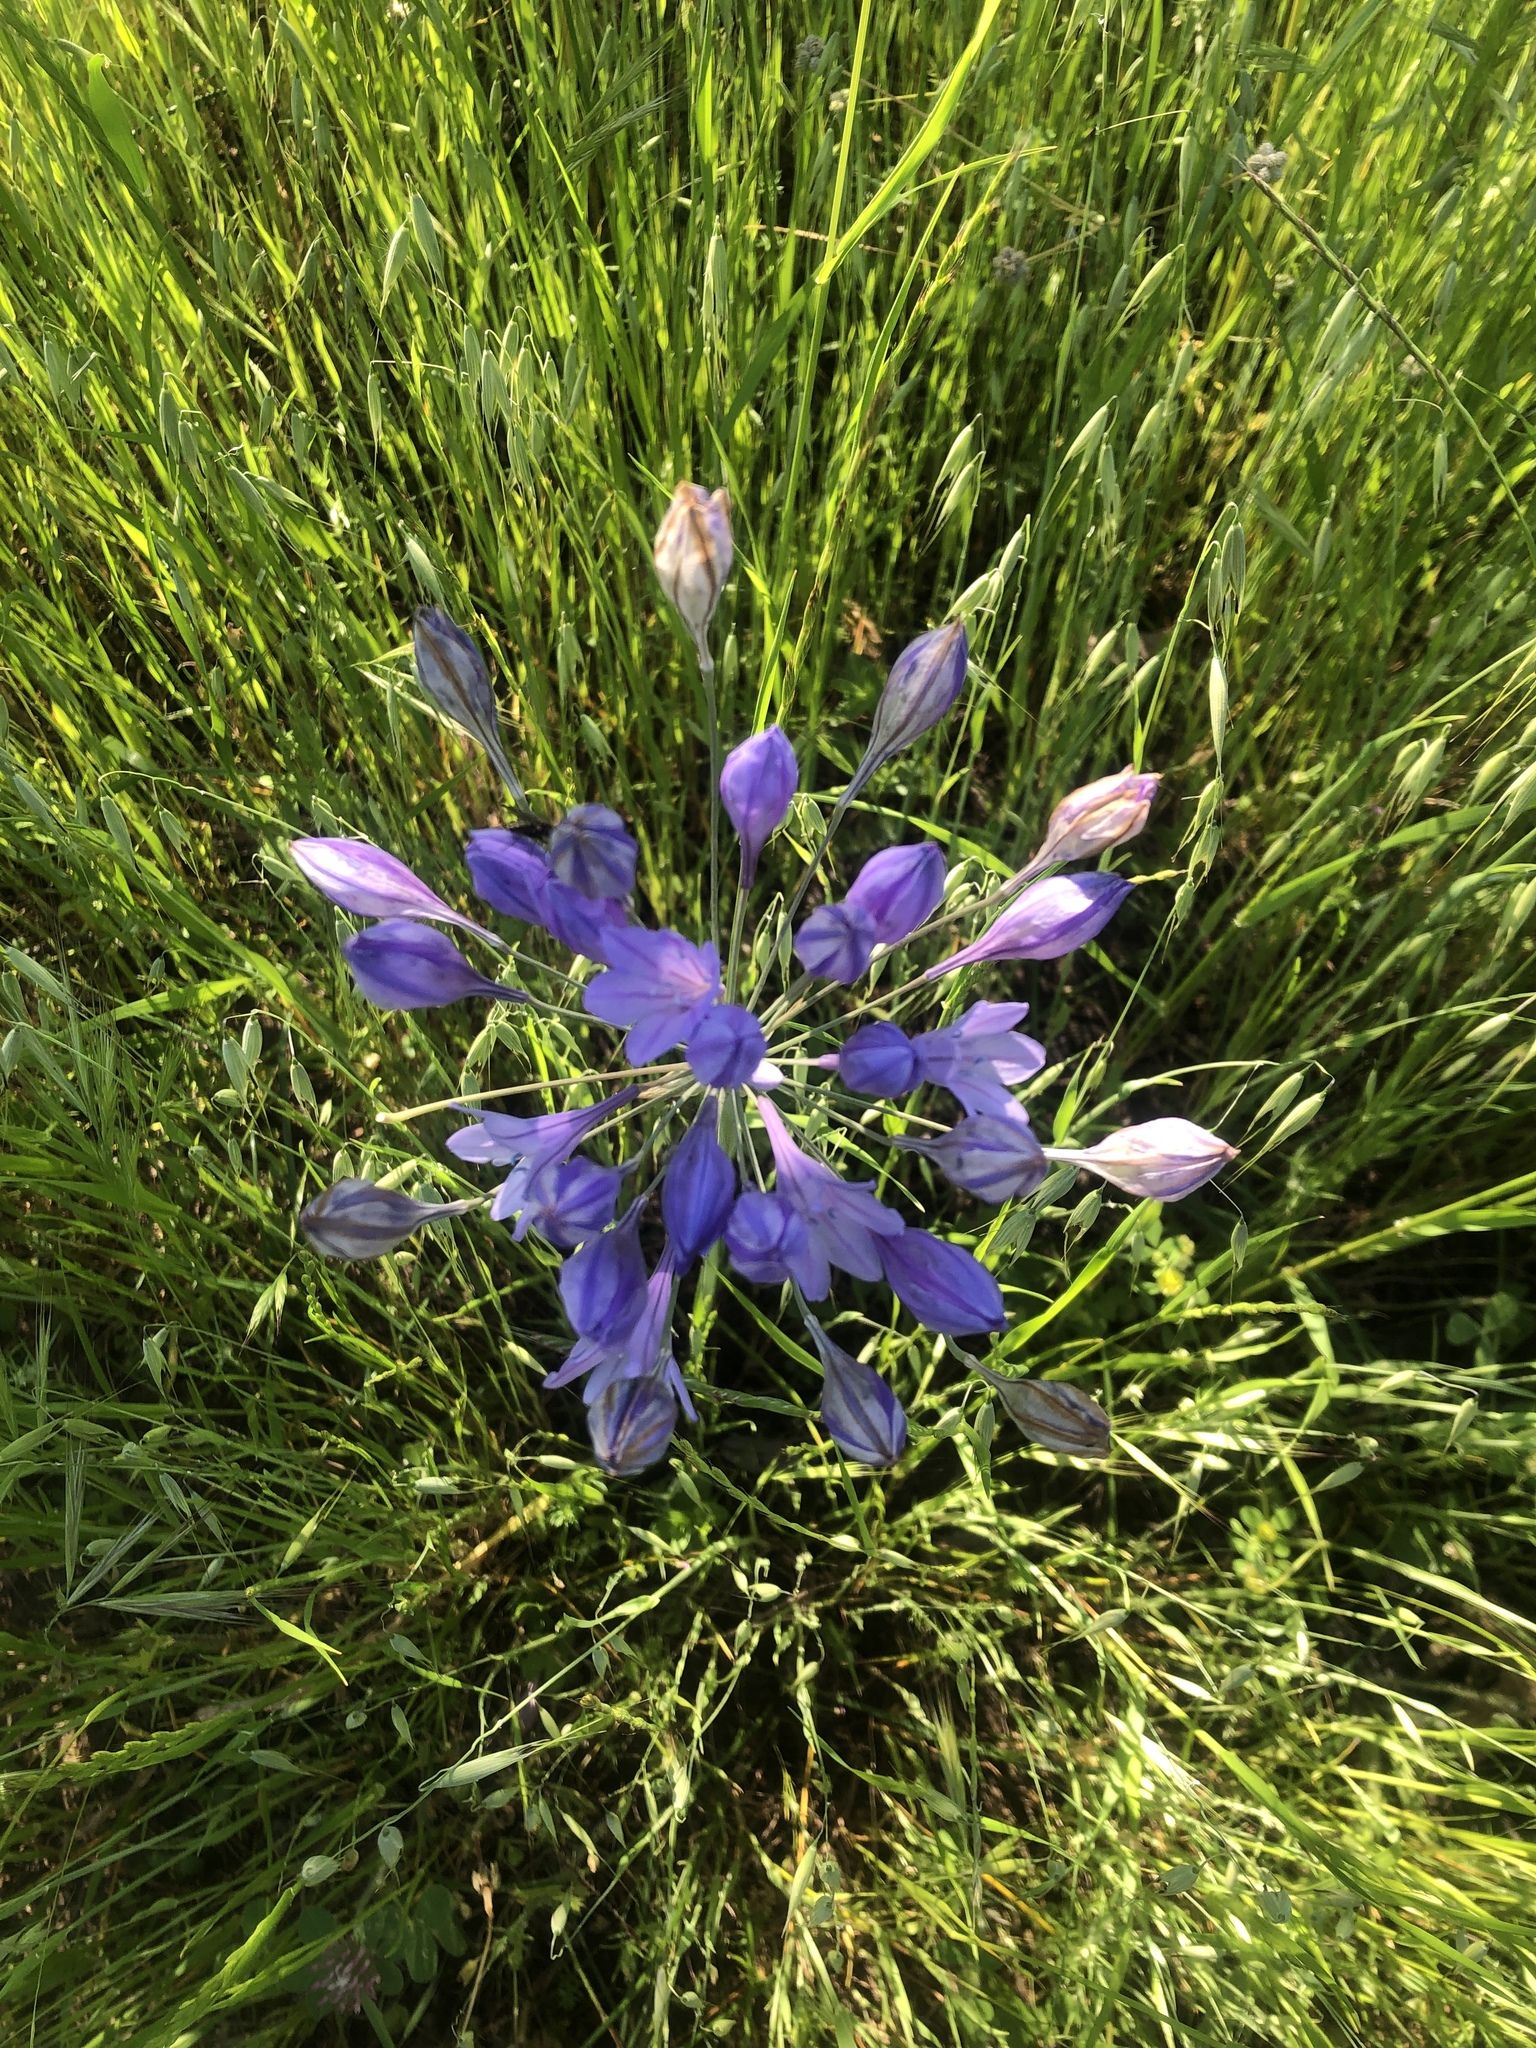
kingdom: Plantae
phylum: Tracheophyta
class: Liliopsida
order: Asparagales
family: Asparagaceae
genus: Triteleia
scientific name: Triteleia laxa
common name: Triplet-lily
